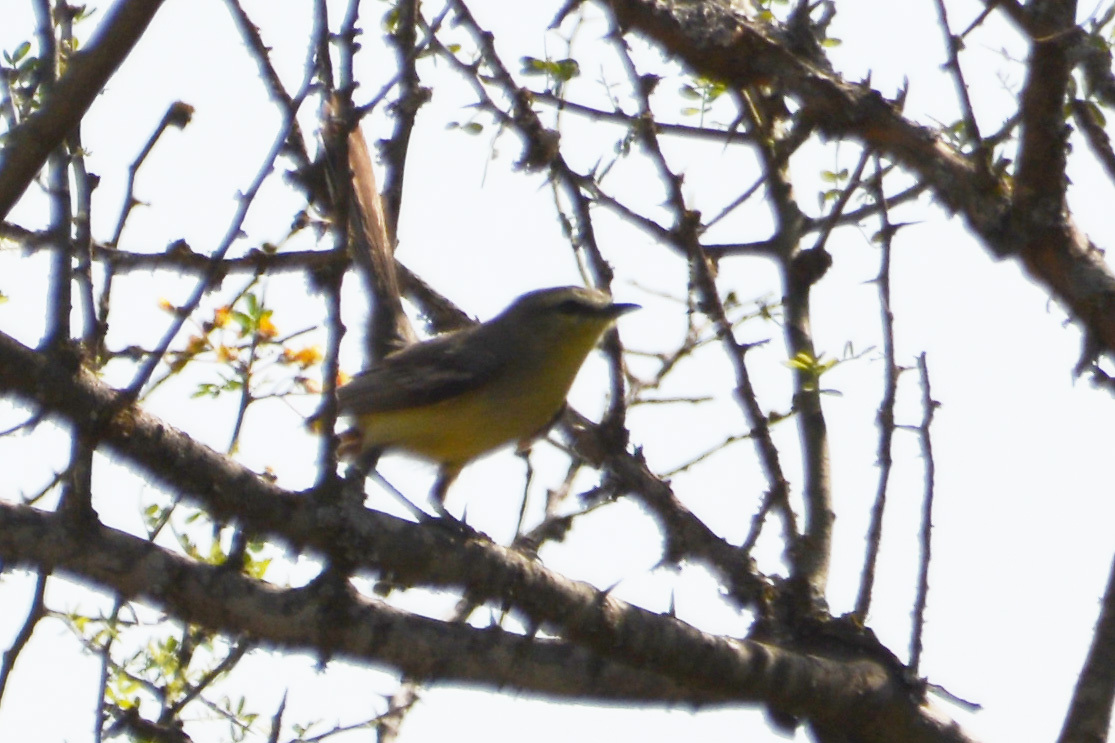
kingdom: Animalia
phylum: Chordata
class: Aves
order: Passeriformes
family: Tyrannidae
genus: Stigmatura
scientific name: Stigmatura budytoides
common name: Greater wagtail-tyrant
